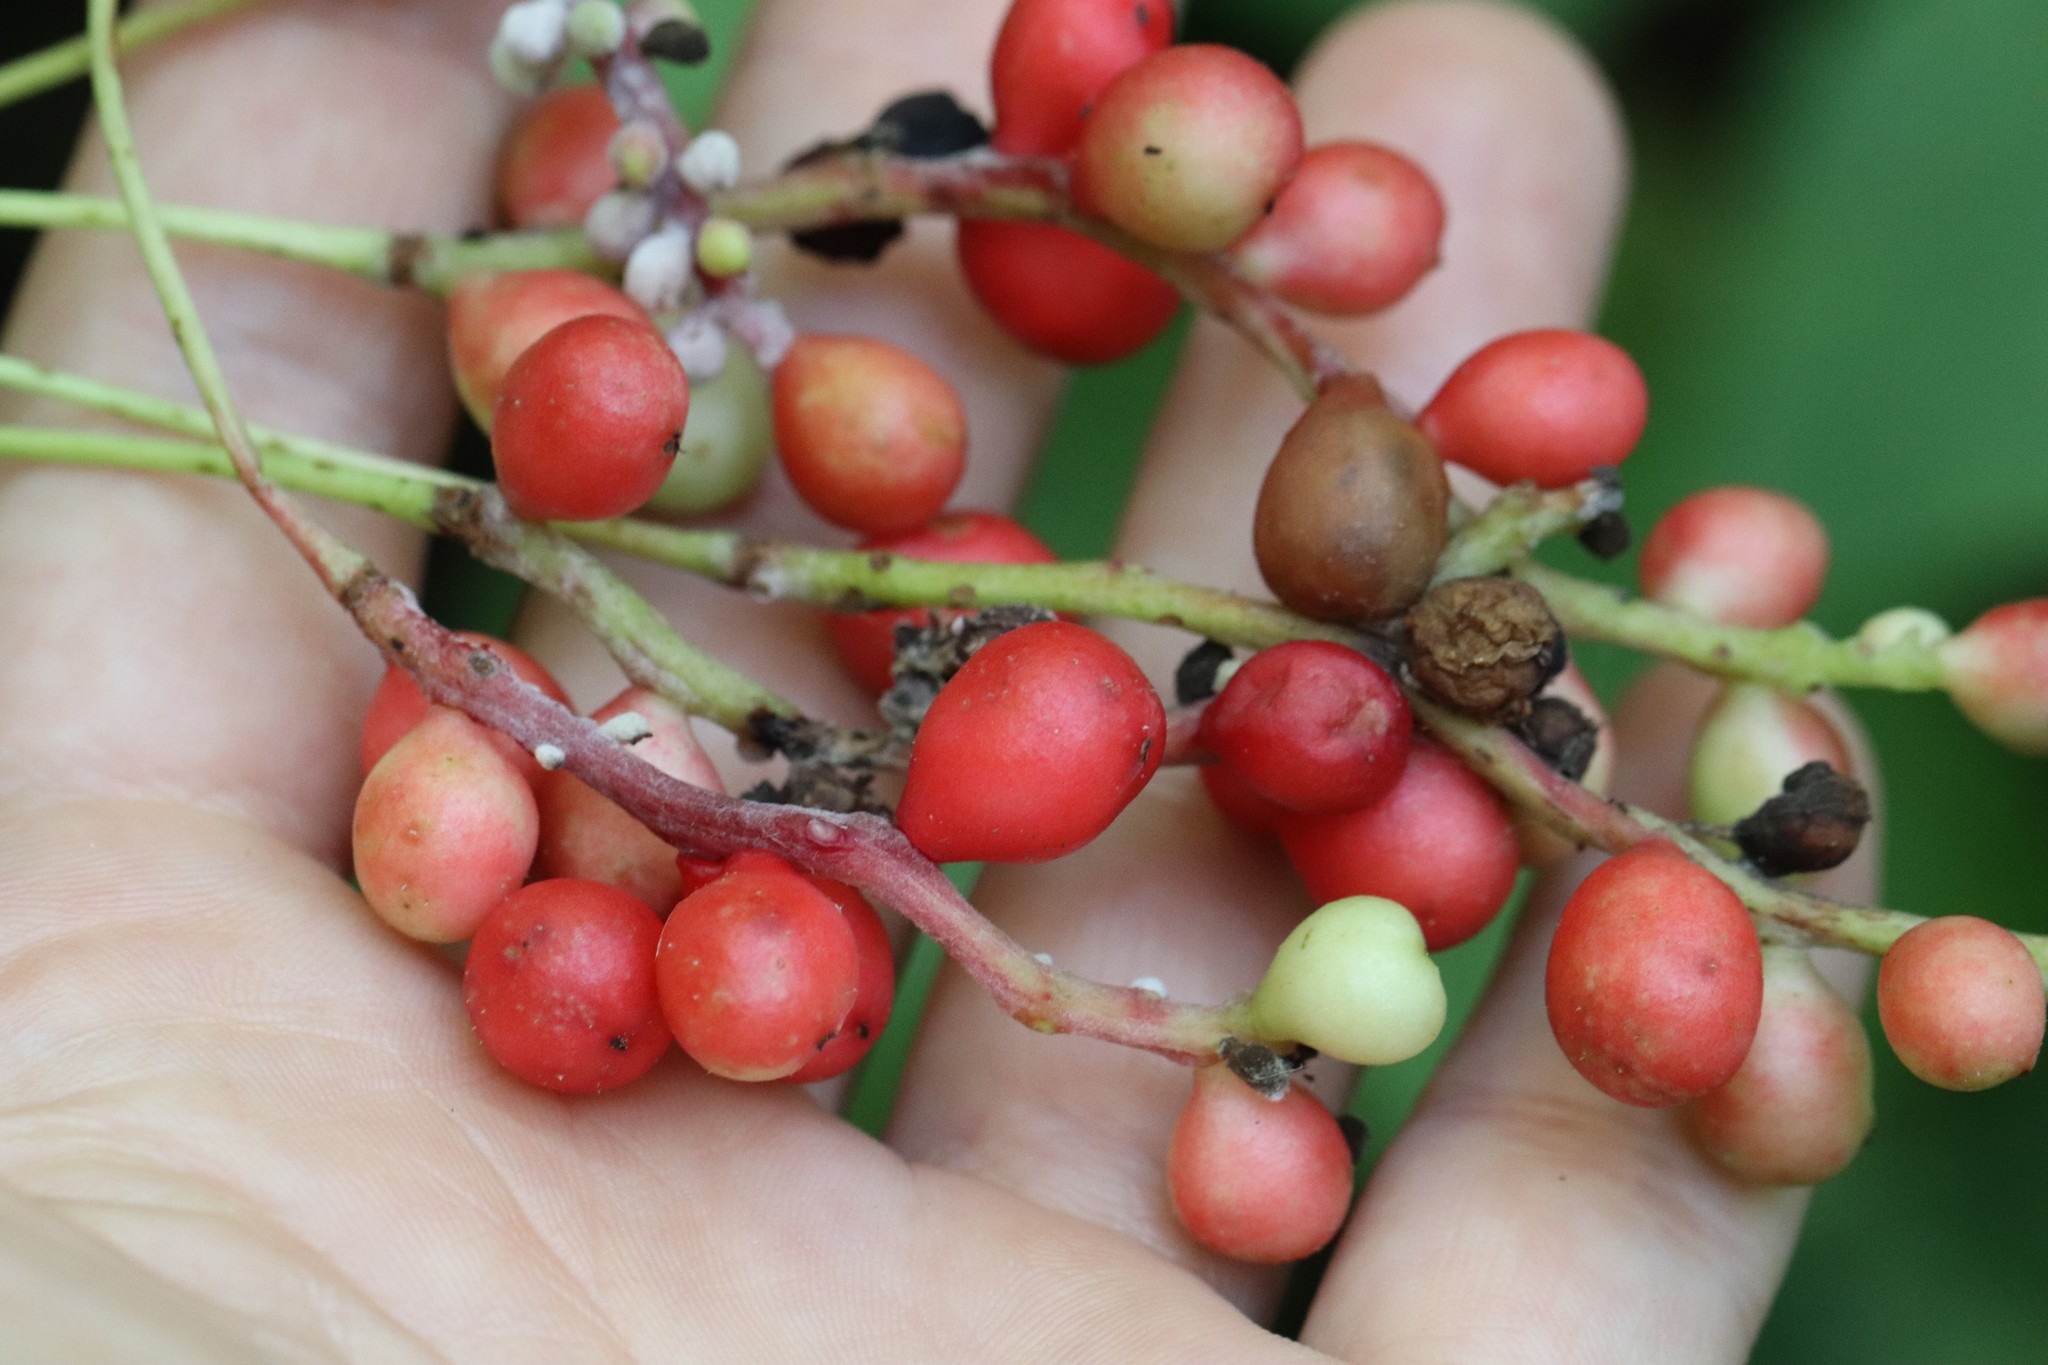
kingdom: Plantae
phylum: Tracheophyta
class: Magnoliopsida
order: Austrobaileyales
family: Schisandraceae
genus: Schisandra
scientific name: Schisandra chinensis
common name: Magnolia-vine
